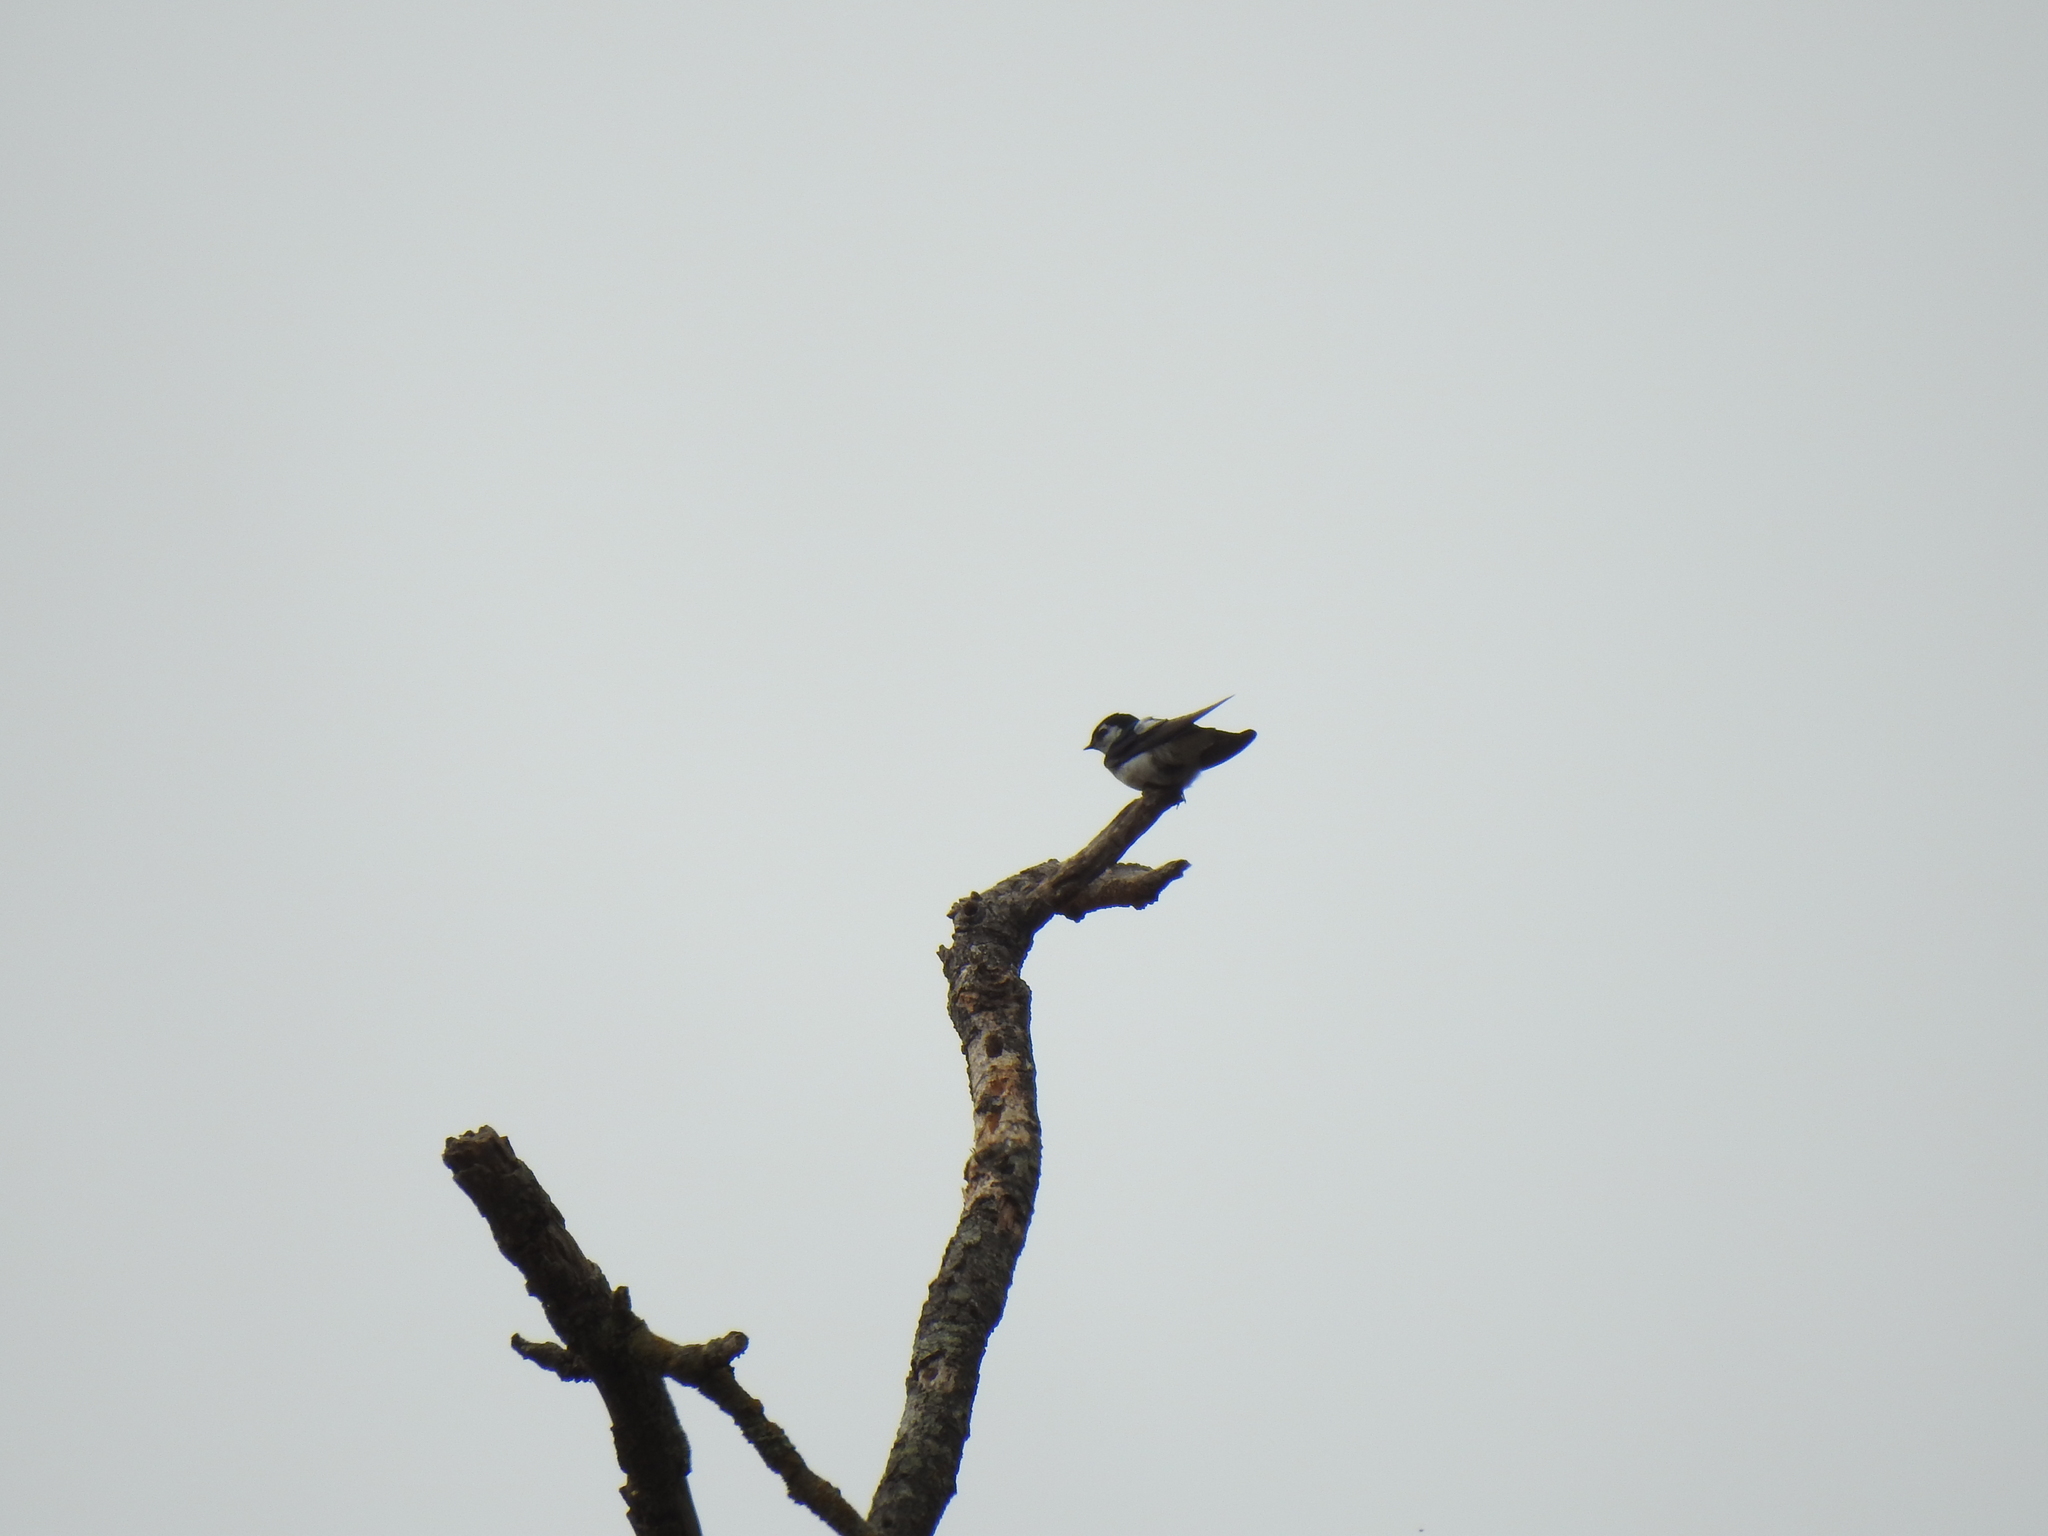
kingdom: Animalia
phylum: Chordata
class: Aves
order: Passeriformes
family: Hirundinidae
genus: Tachycineta
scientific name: Tachycineta thalassina
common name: Violet-green swallow
